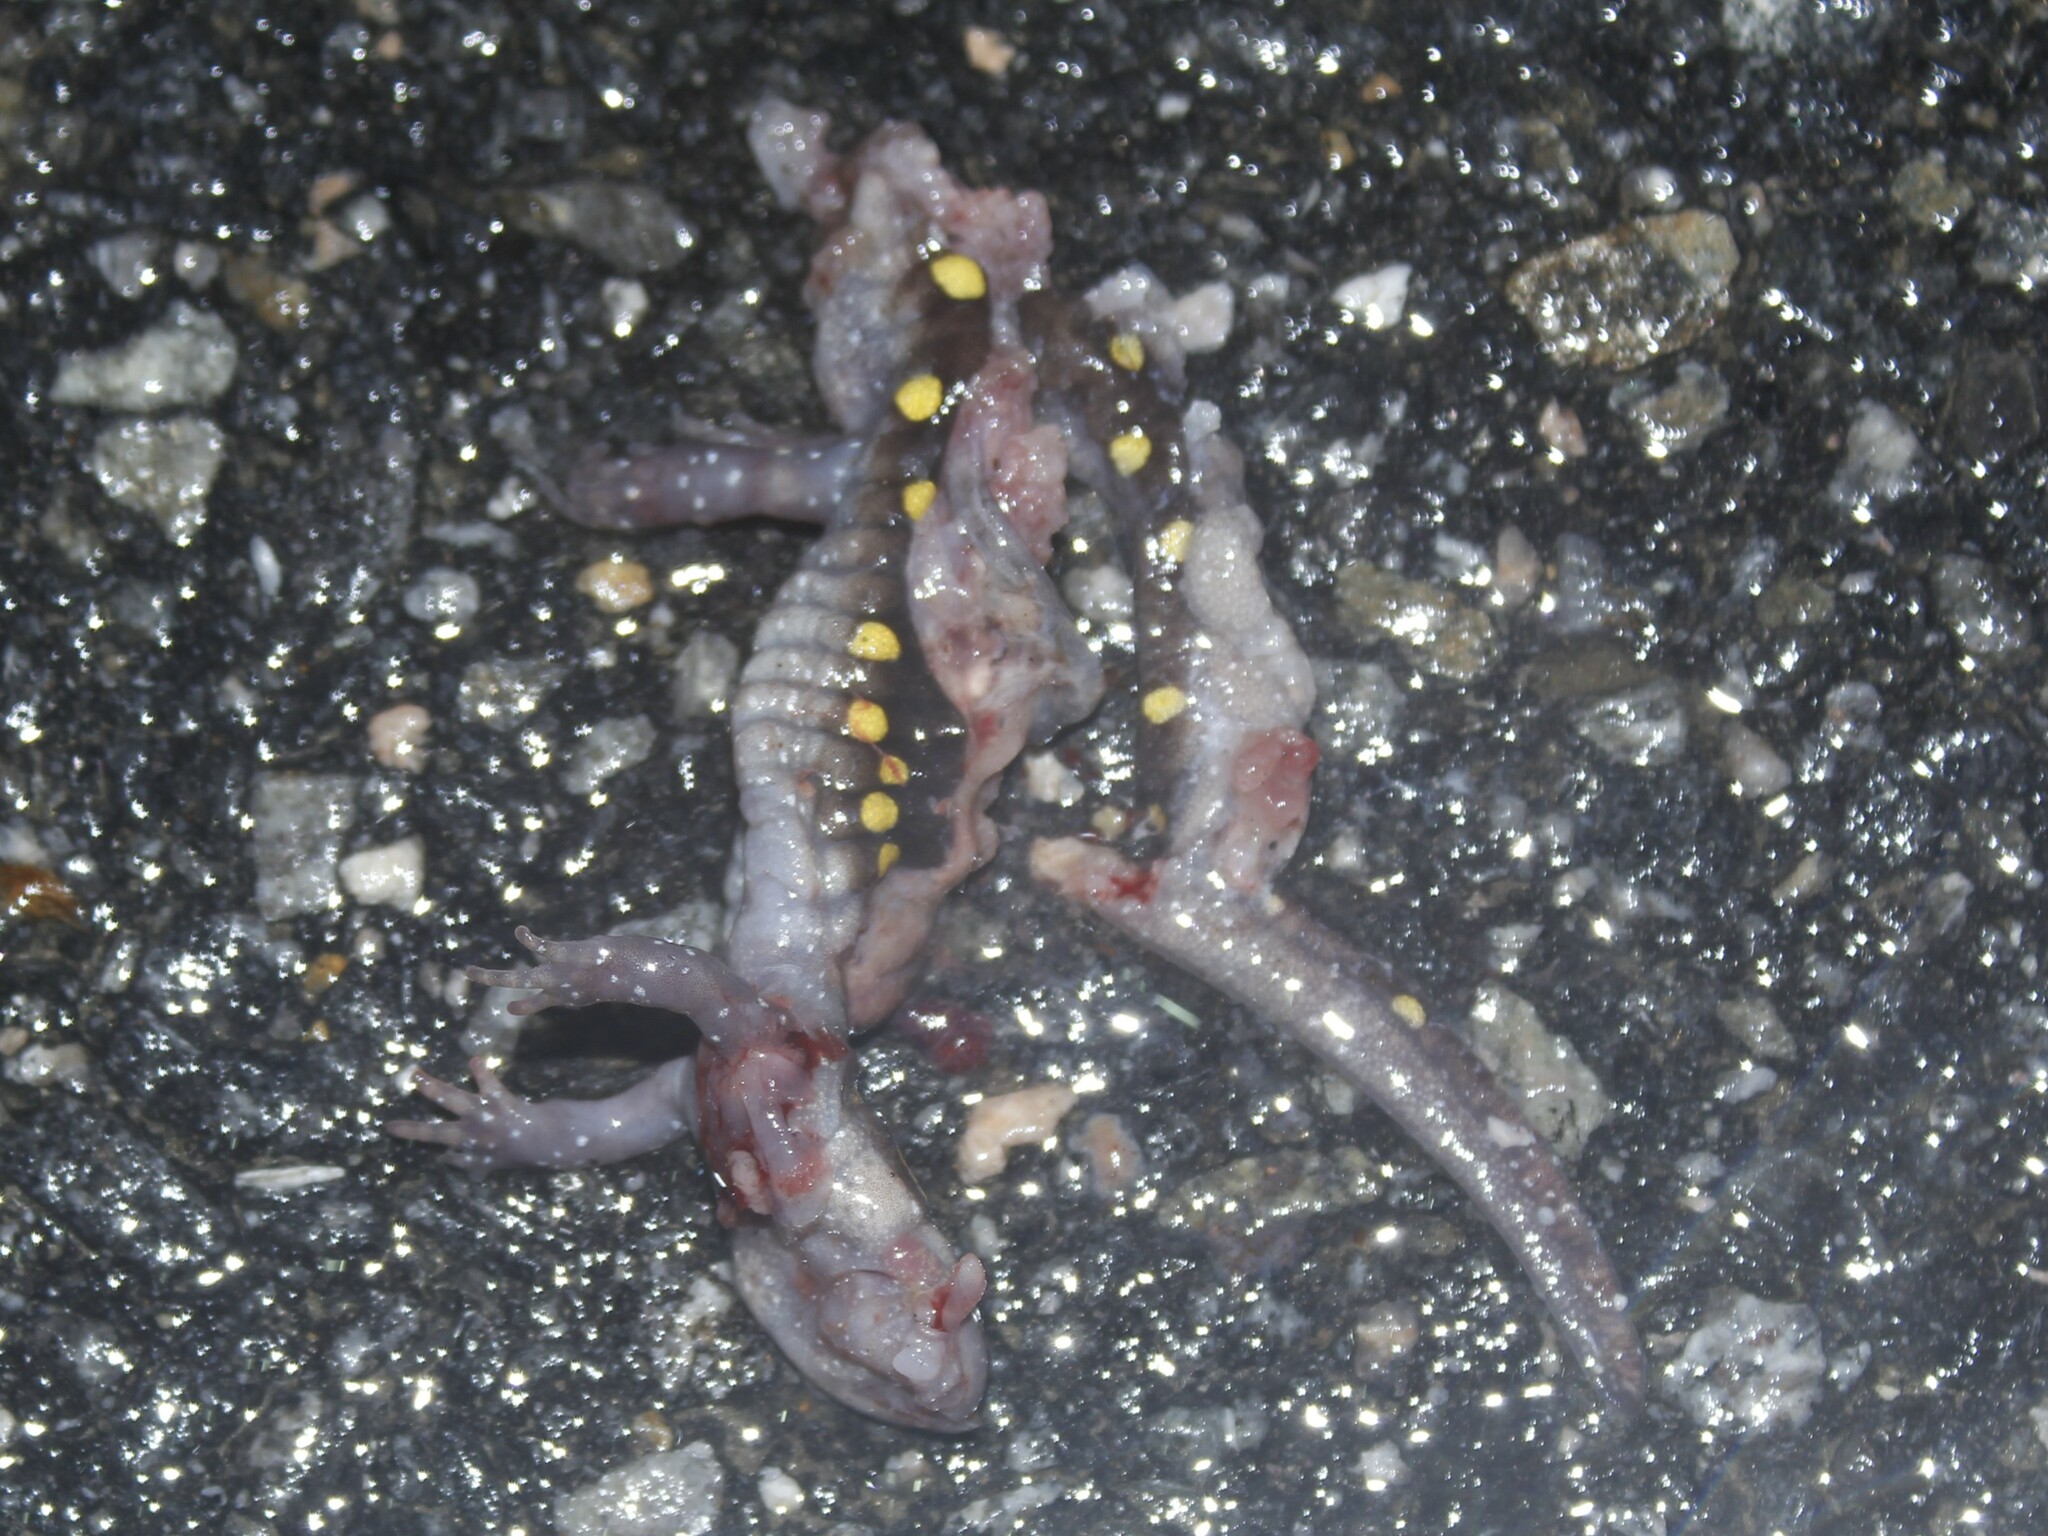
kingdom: Animalia
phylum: Chordata
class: Amphibia
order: Caudata
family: Ambystomatidae
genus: Ambystoma
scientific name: Ambystoma maculatum
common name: Spotted salamander
